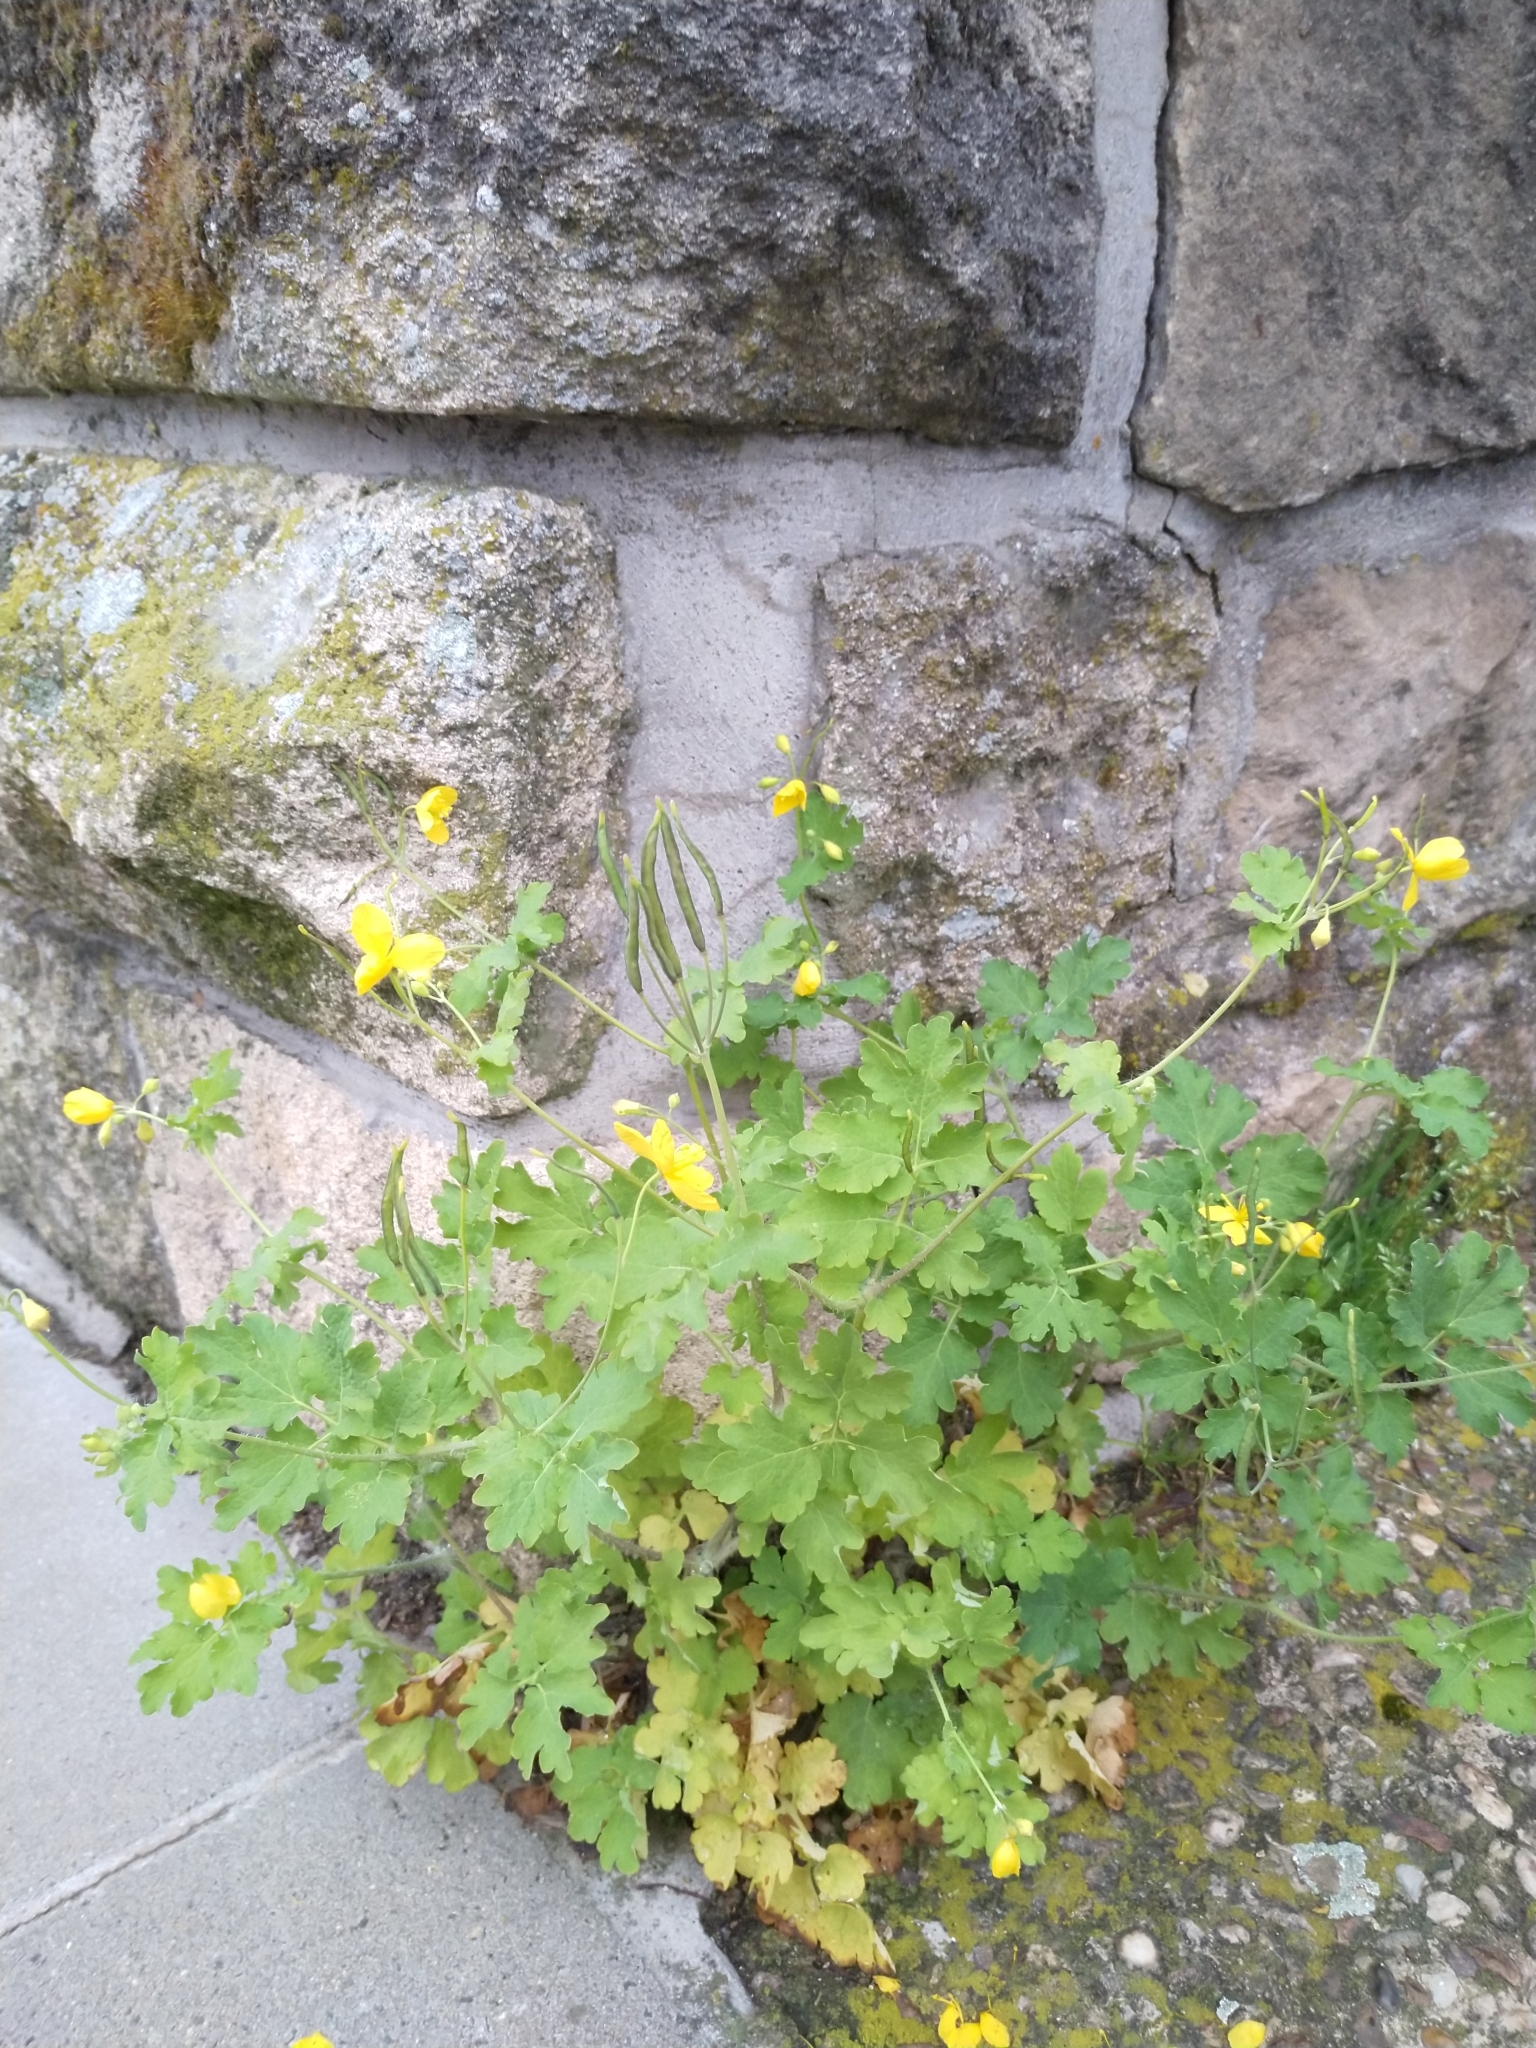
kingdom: Plantae
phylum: Tracheophyta
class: Magnoliopsida
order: Ranunculales
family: Papaveraceae
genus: Chelidonium
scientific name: Chelidonium majus
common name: Greater celandine
